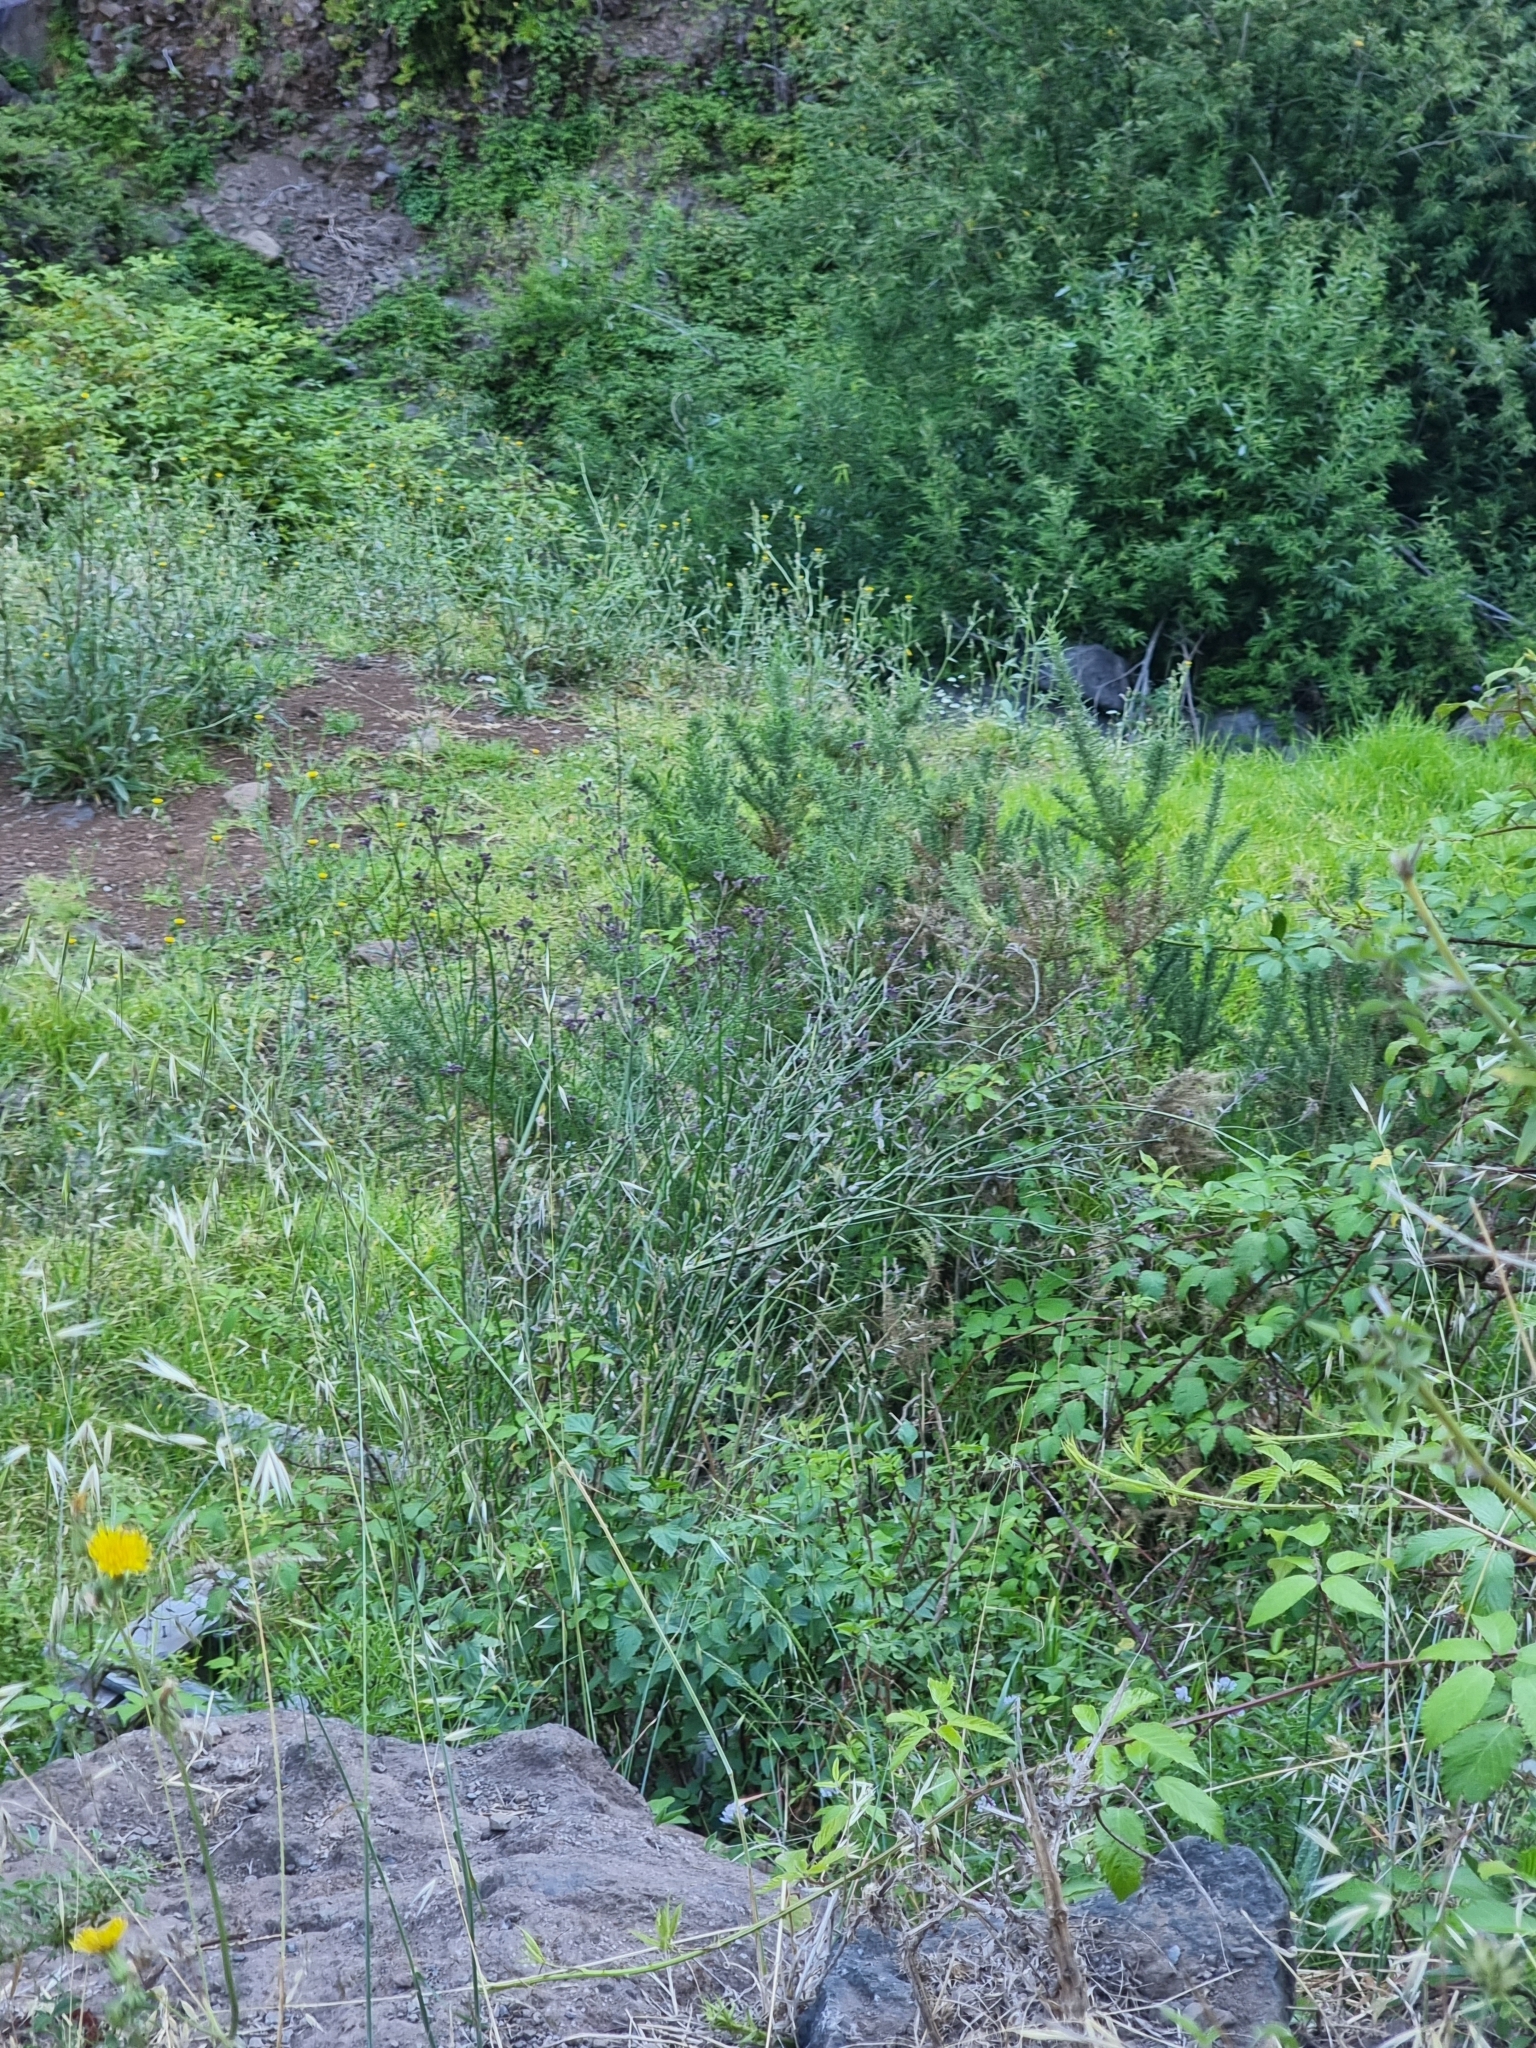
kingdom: Plantae
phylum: Tracheophyta
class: Magnoliopsida
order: Fabales
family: Fabaceae
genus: Ulex
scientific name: Ulex europaeus
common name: Common gorse
